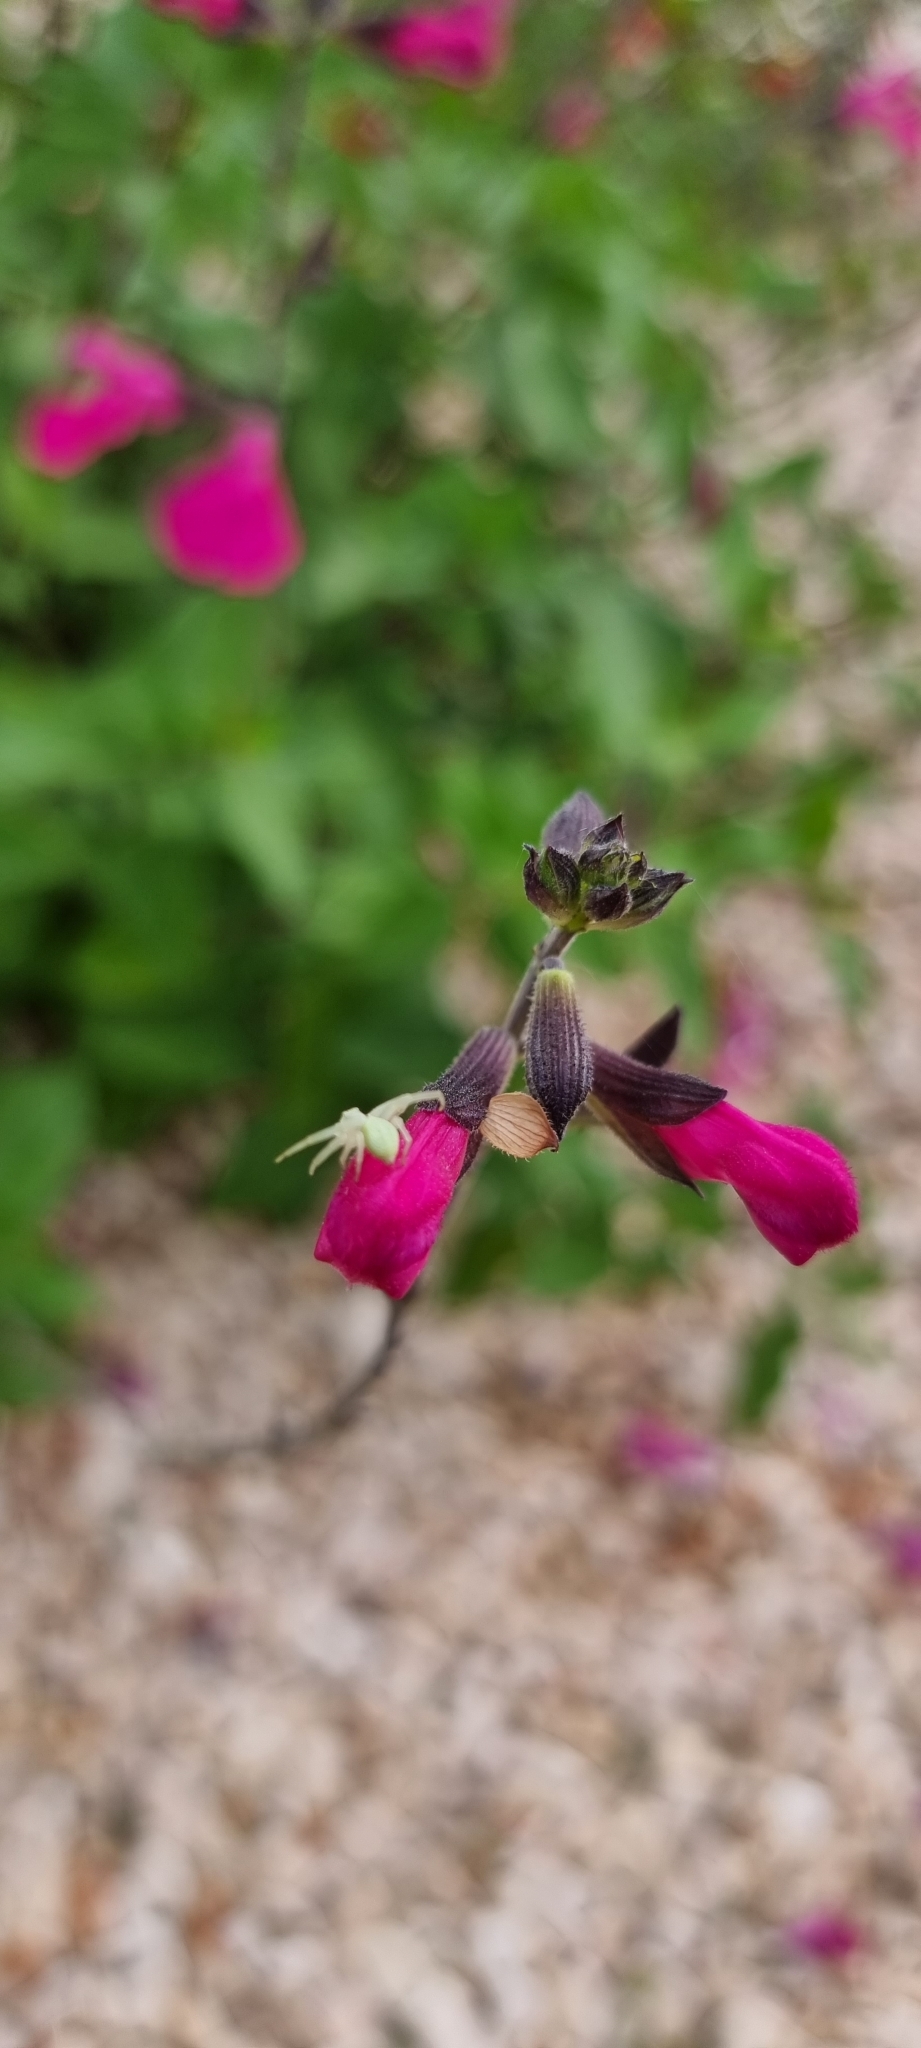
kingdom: Animalia
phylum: Arthropoda
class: Arachnida
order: Araneae
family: Thomisidae
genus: Misumena
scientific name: Misumena vatia
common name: Goldenrod crab spider
